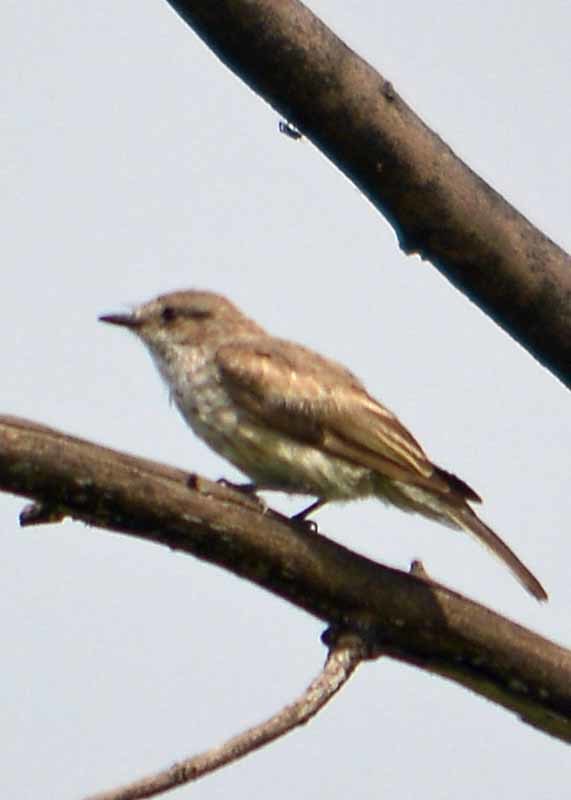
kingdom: Animalia
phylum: Chordata
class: Aves
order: Passeriformes
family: Tyrannidae
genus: Pyrocephalus
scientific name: Pyrocephalus rubinus
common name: Vermilion flycatcher
